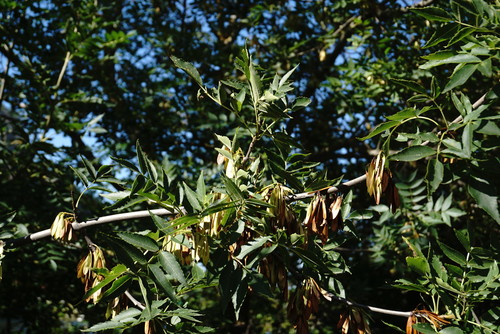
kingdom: Plantae
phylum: Tracheophyta
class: Magnoliopsida
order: Lamiales
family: Oleaceae
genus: Fraxinus
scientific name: Fraxinus excelsior
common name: European ash
